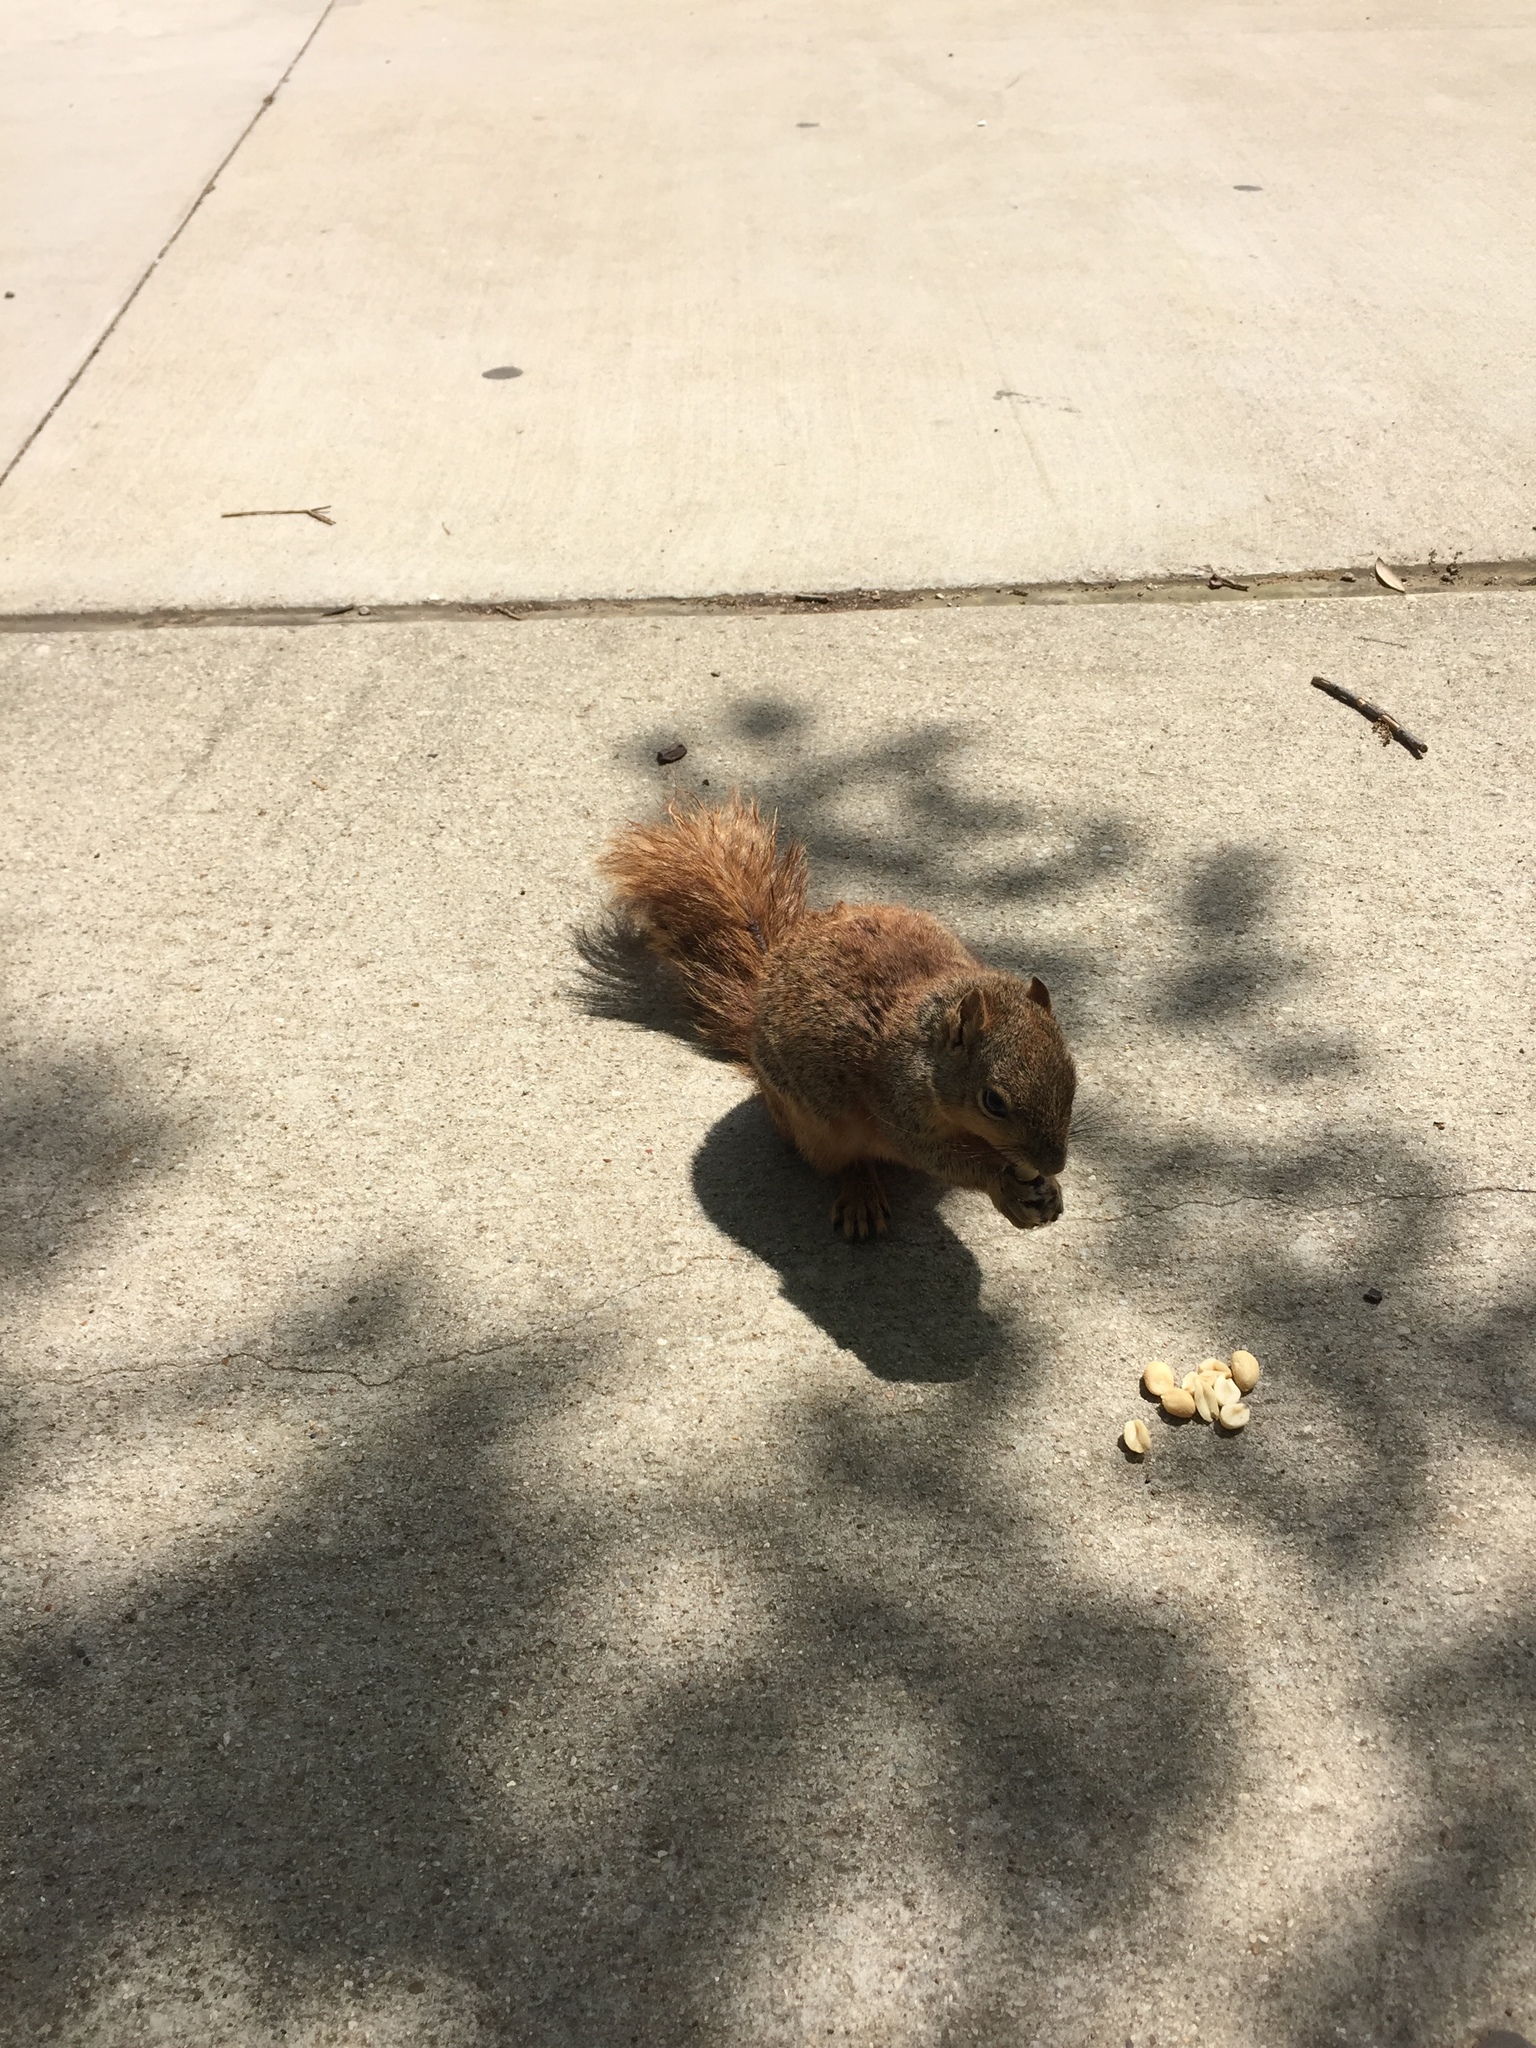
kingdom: Animalia
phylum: Chordata
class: Mammalia
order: Rodentia
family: Sciuridae
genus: Sciurus
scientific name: Sciurus niger
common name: Fox squirrel
